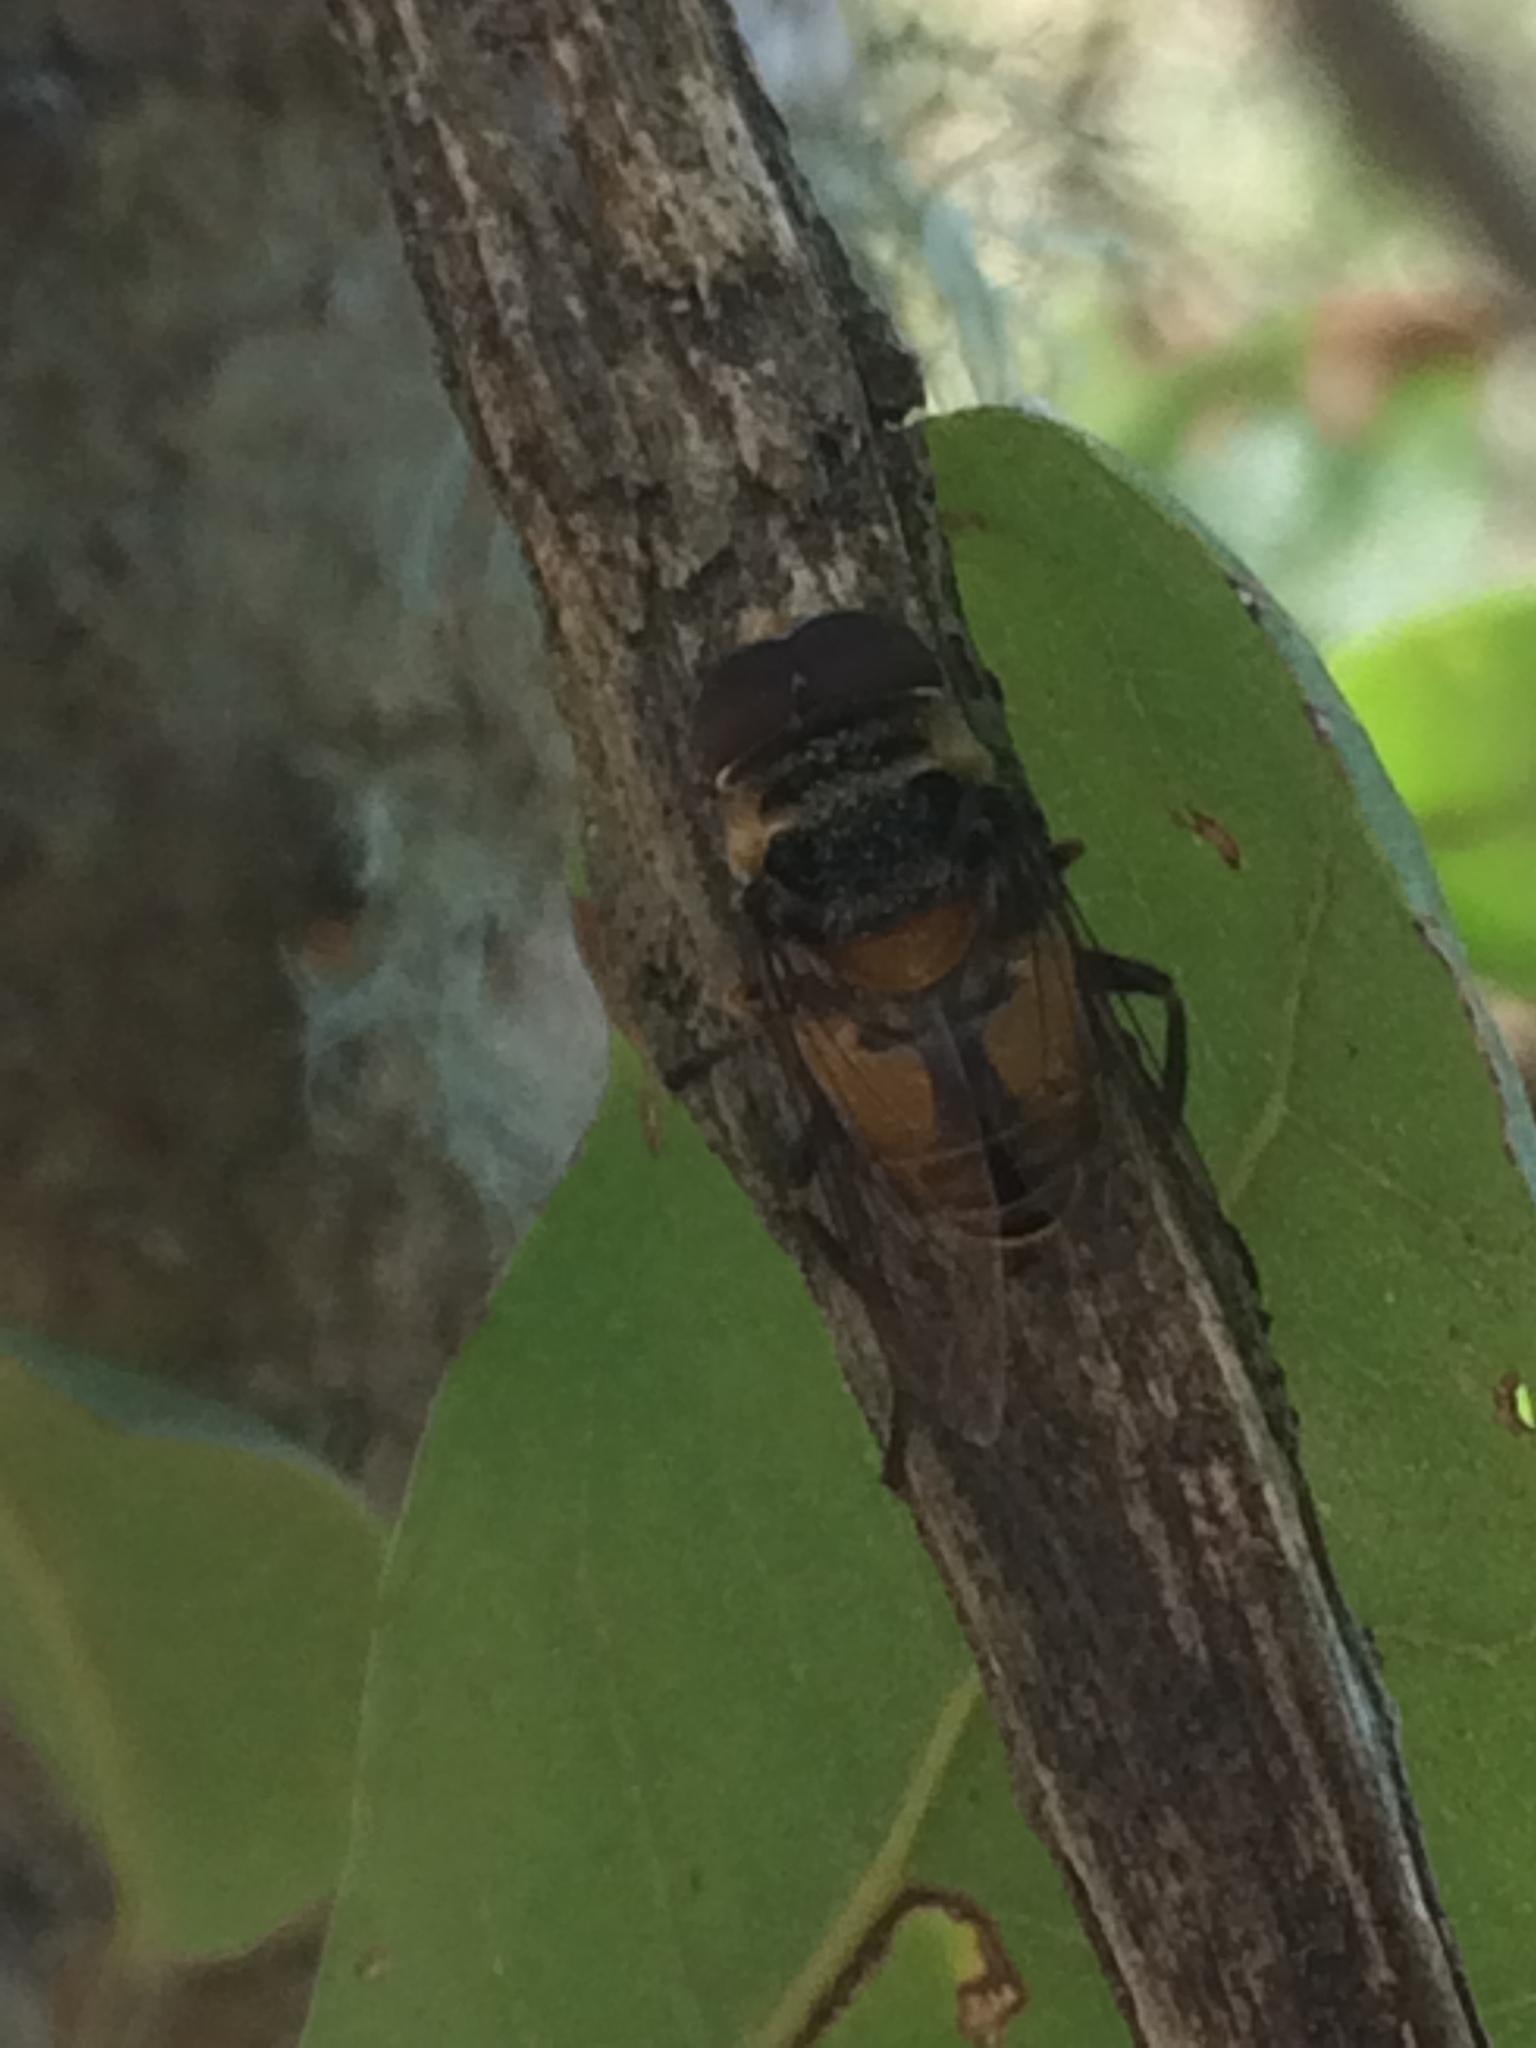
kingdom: Animalia
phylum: Arthropoda
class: Insecta
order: Diptera
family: Syrphidae
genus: Palpada
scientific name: Palpada agrorum
